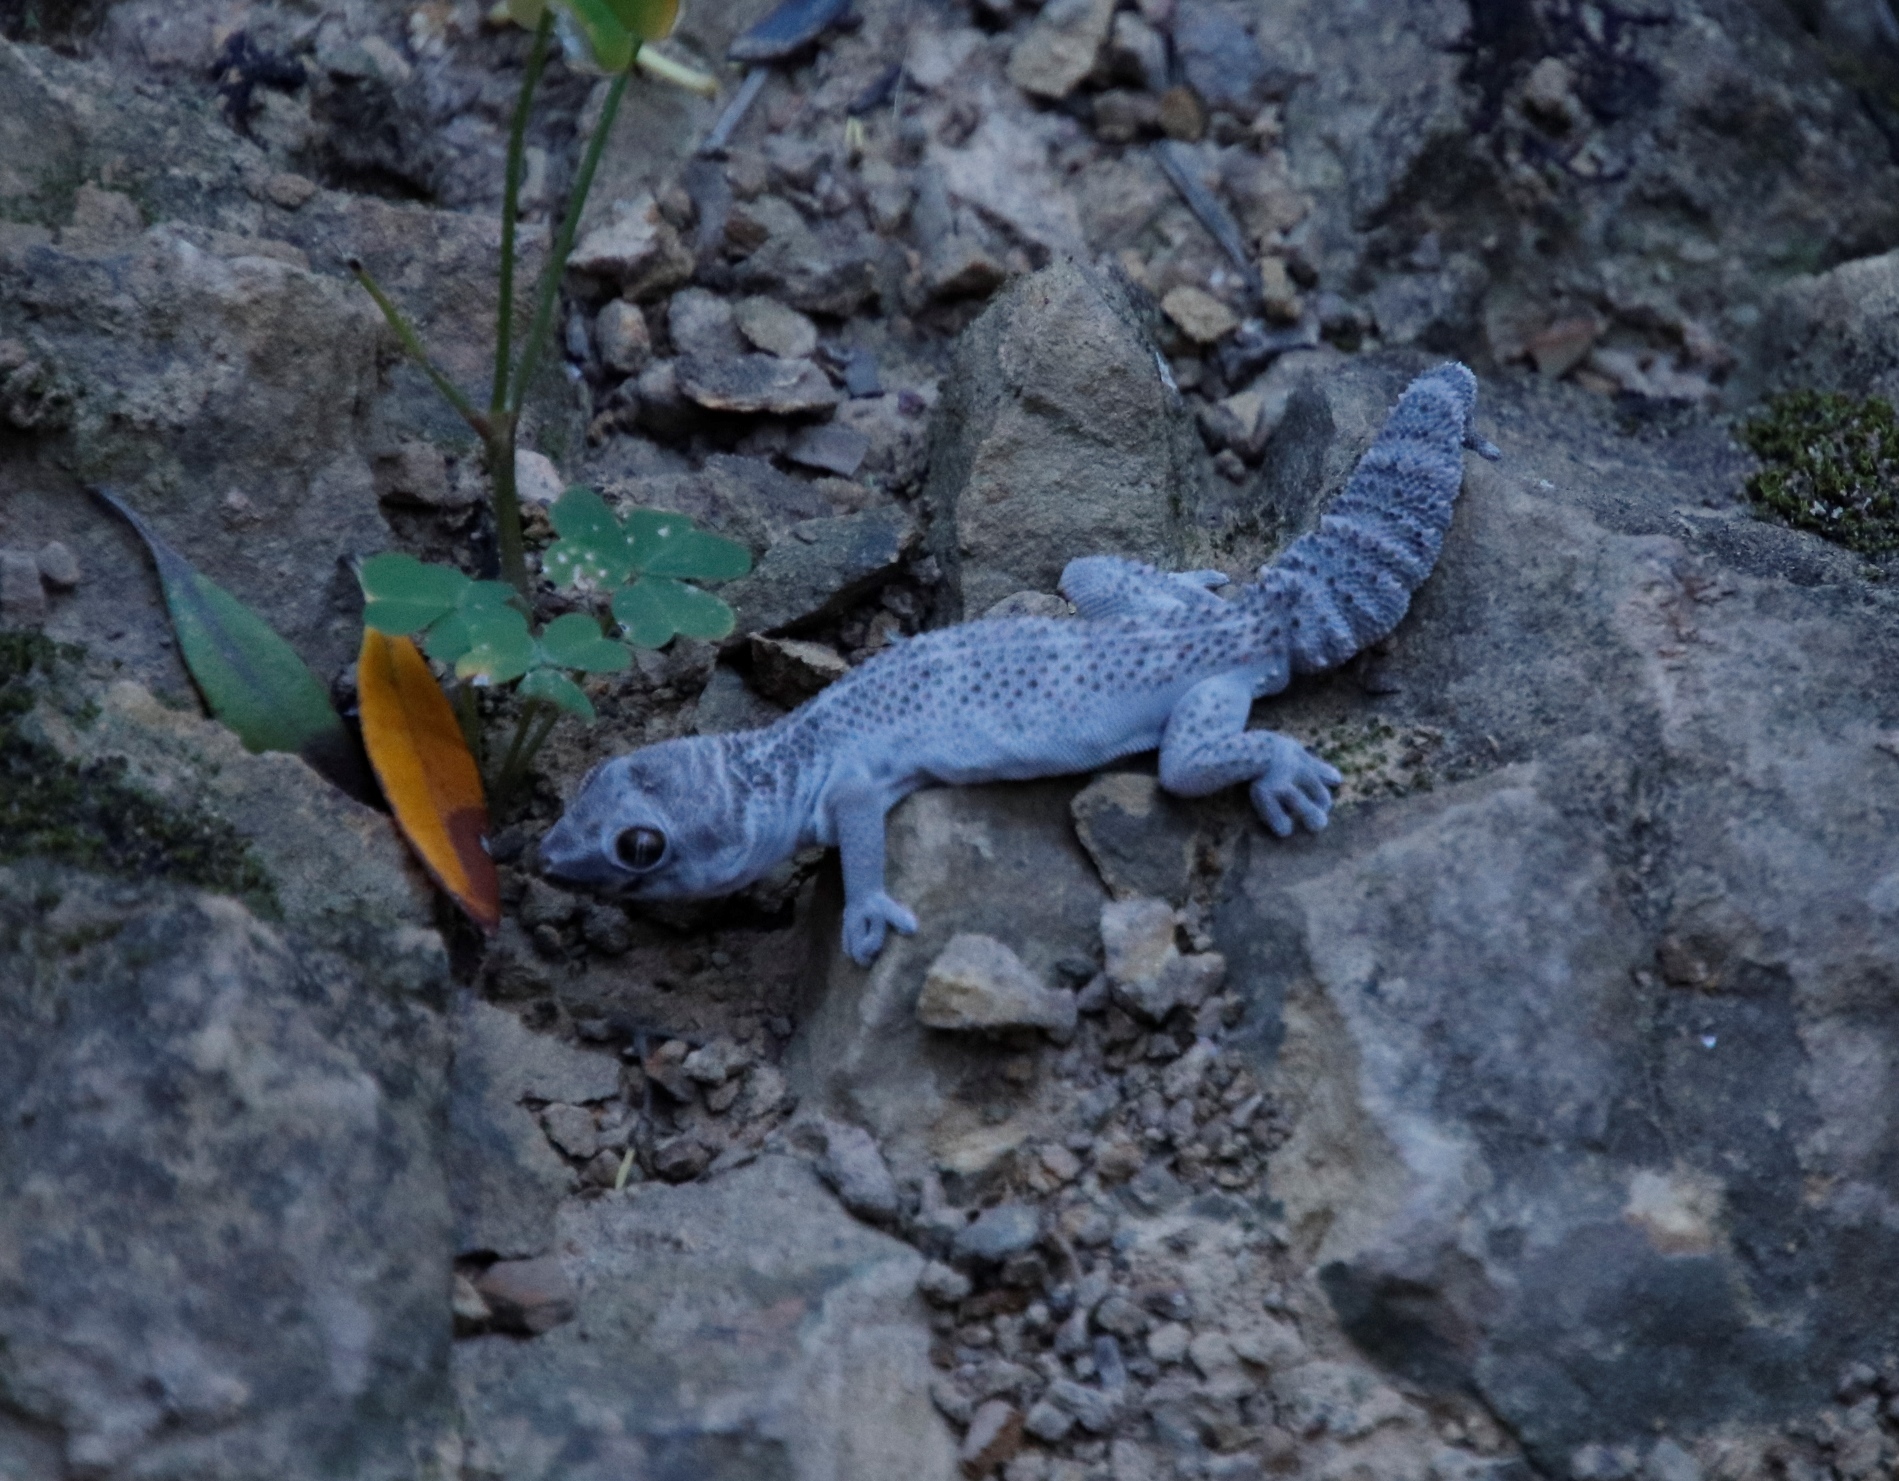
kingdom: Animalia
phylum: Chordata
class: Squamata
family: Gekkonidae
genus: Pachydactylus
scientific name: Pachydactylus formosus
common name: Southern rough gecko
